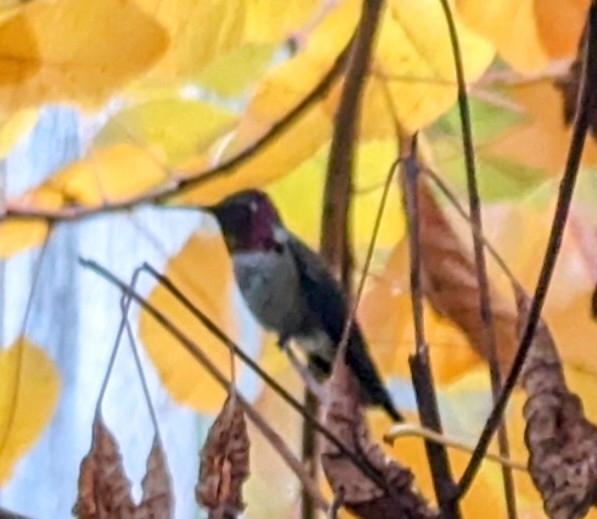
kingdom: Animalia
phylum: Chordata
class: Aves
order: Apodiformes
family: Trochilidae
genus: Calypte
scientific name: Calypte anna
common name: Anna's hummingbird
